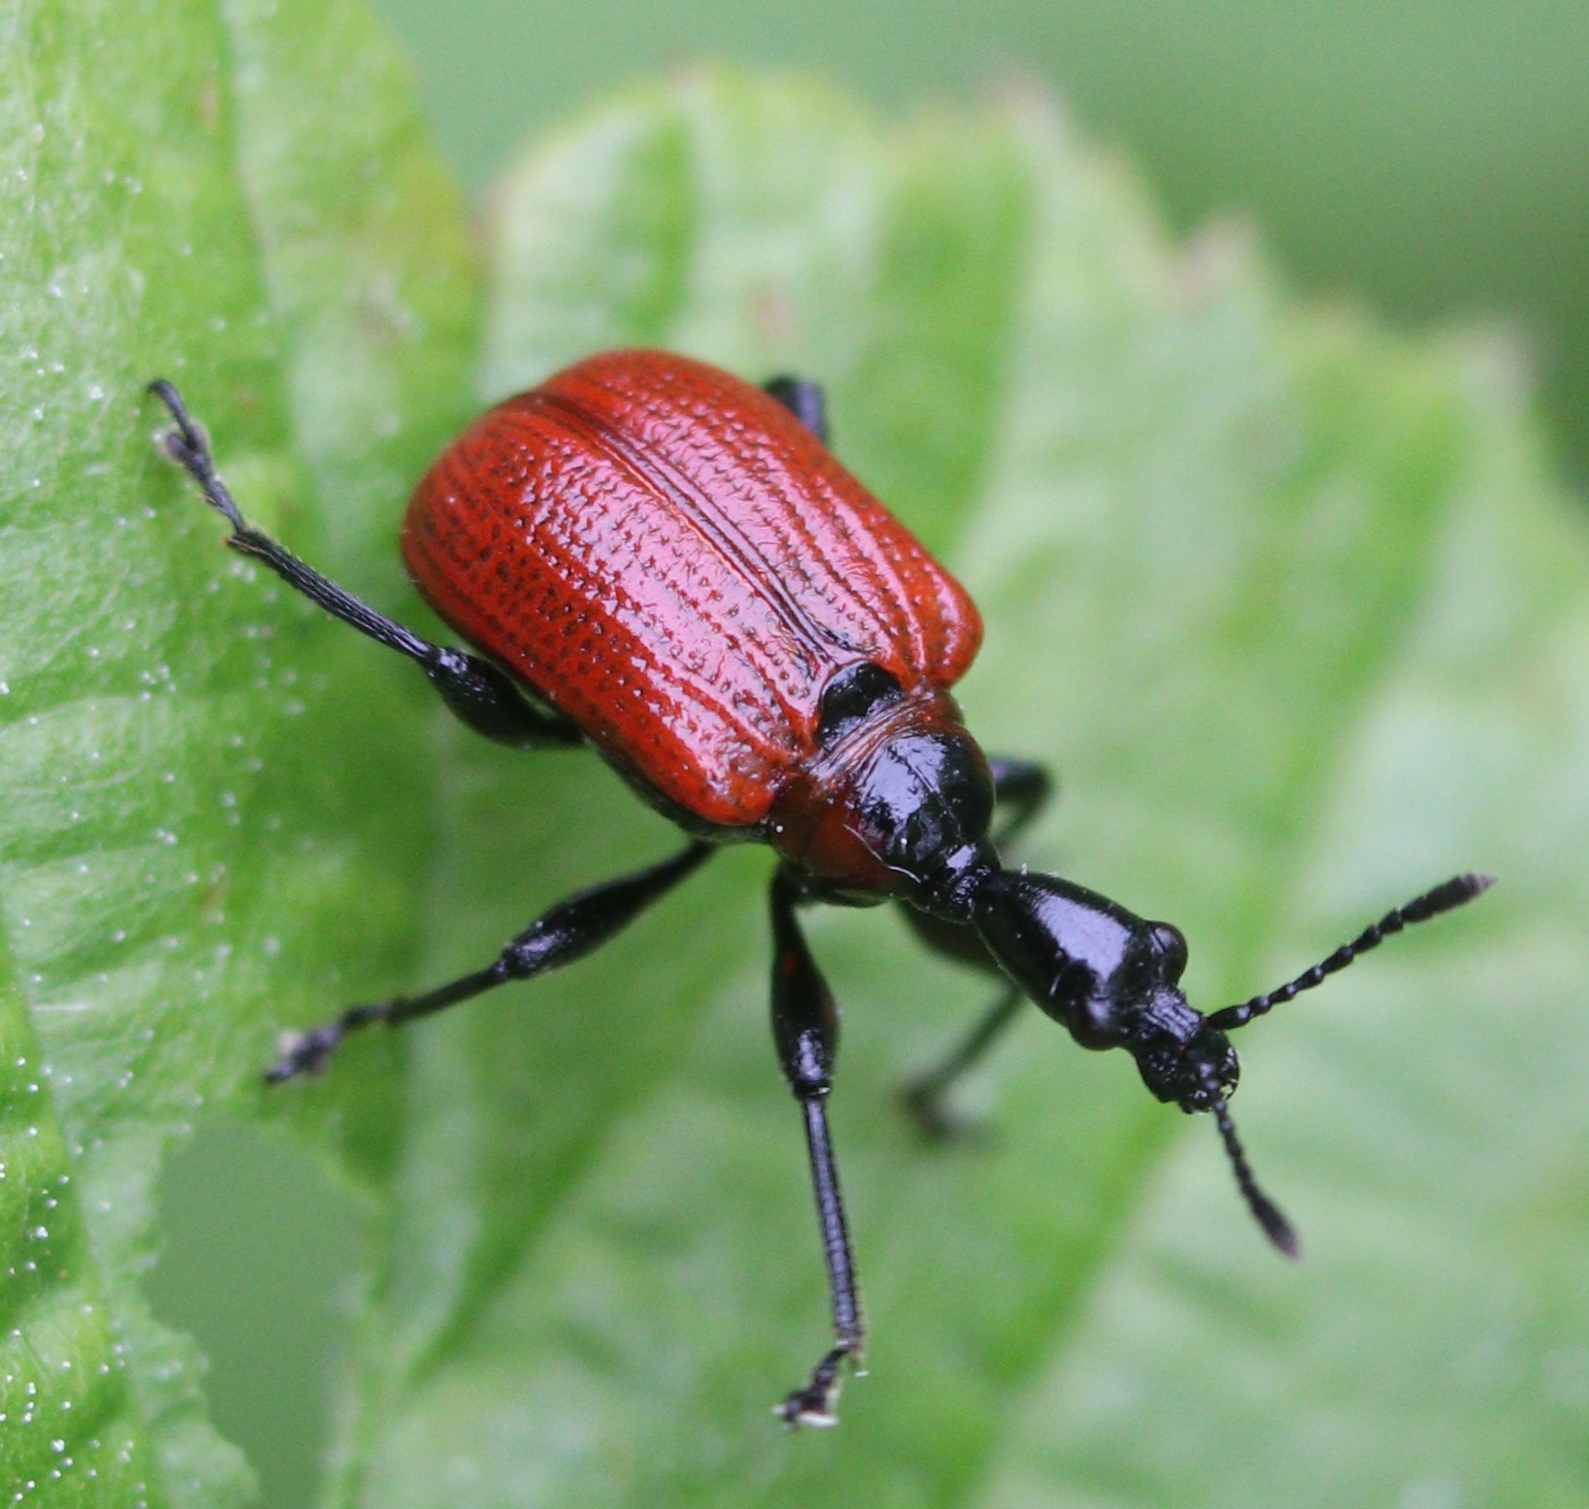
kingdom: Animalia
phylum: Arthropoda
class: Insecta
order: Coleoptera
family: Attelabidae
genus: Apoderus
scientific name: Apoderus coryli
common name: Hazel leaf roller
